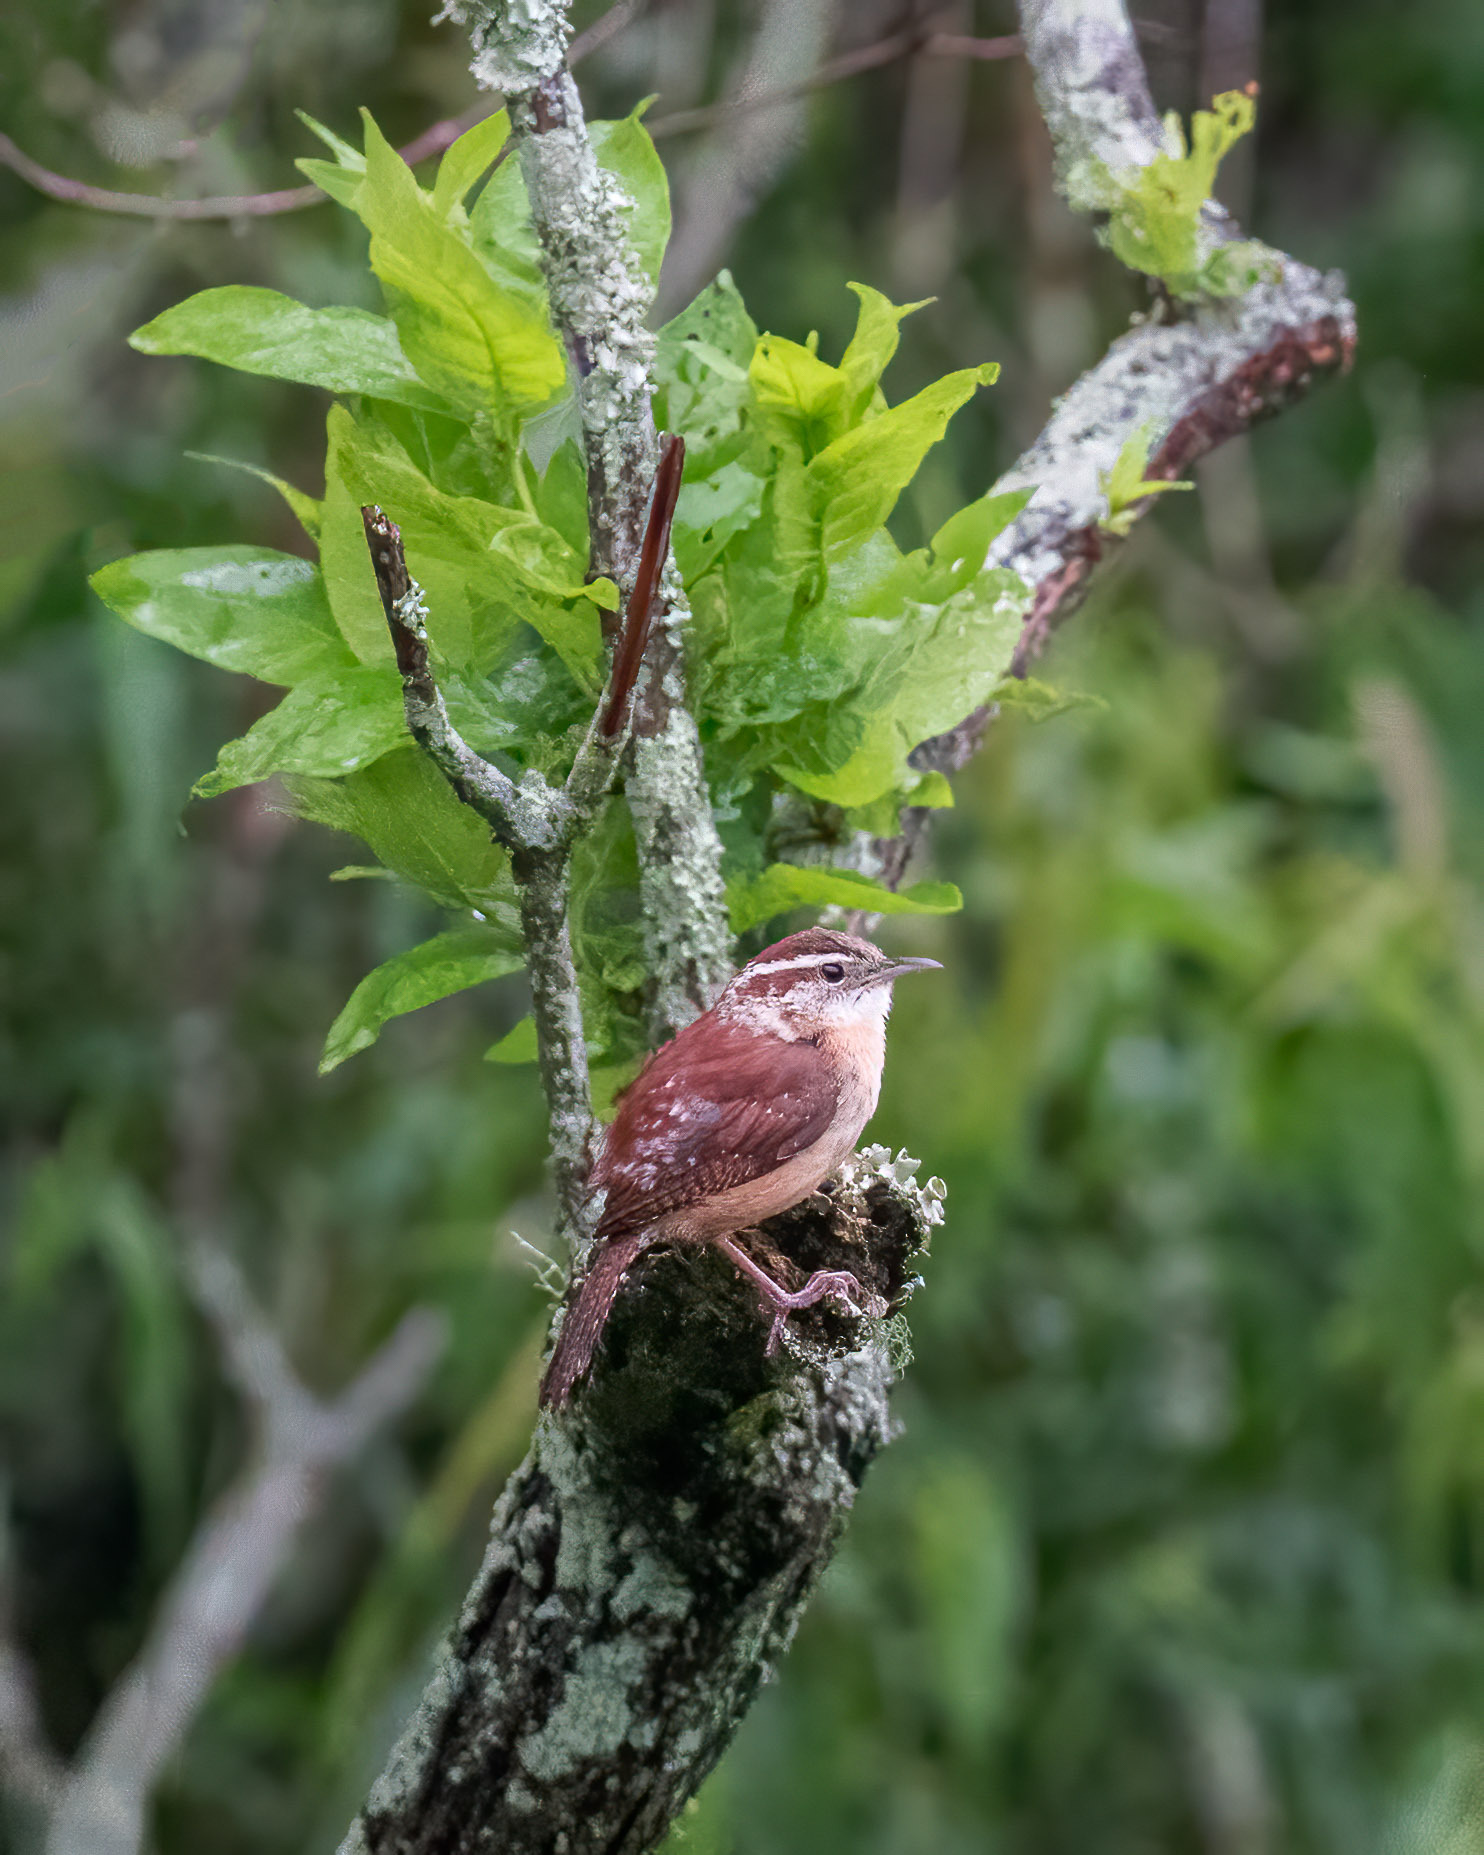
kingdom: Animalia
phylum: Chordata
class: Aves
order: Passeriformes
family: Troglodytidae
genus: Thryothorus
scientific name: Thryothorus ludovicianus
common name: Carolina wren
